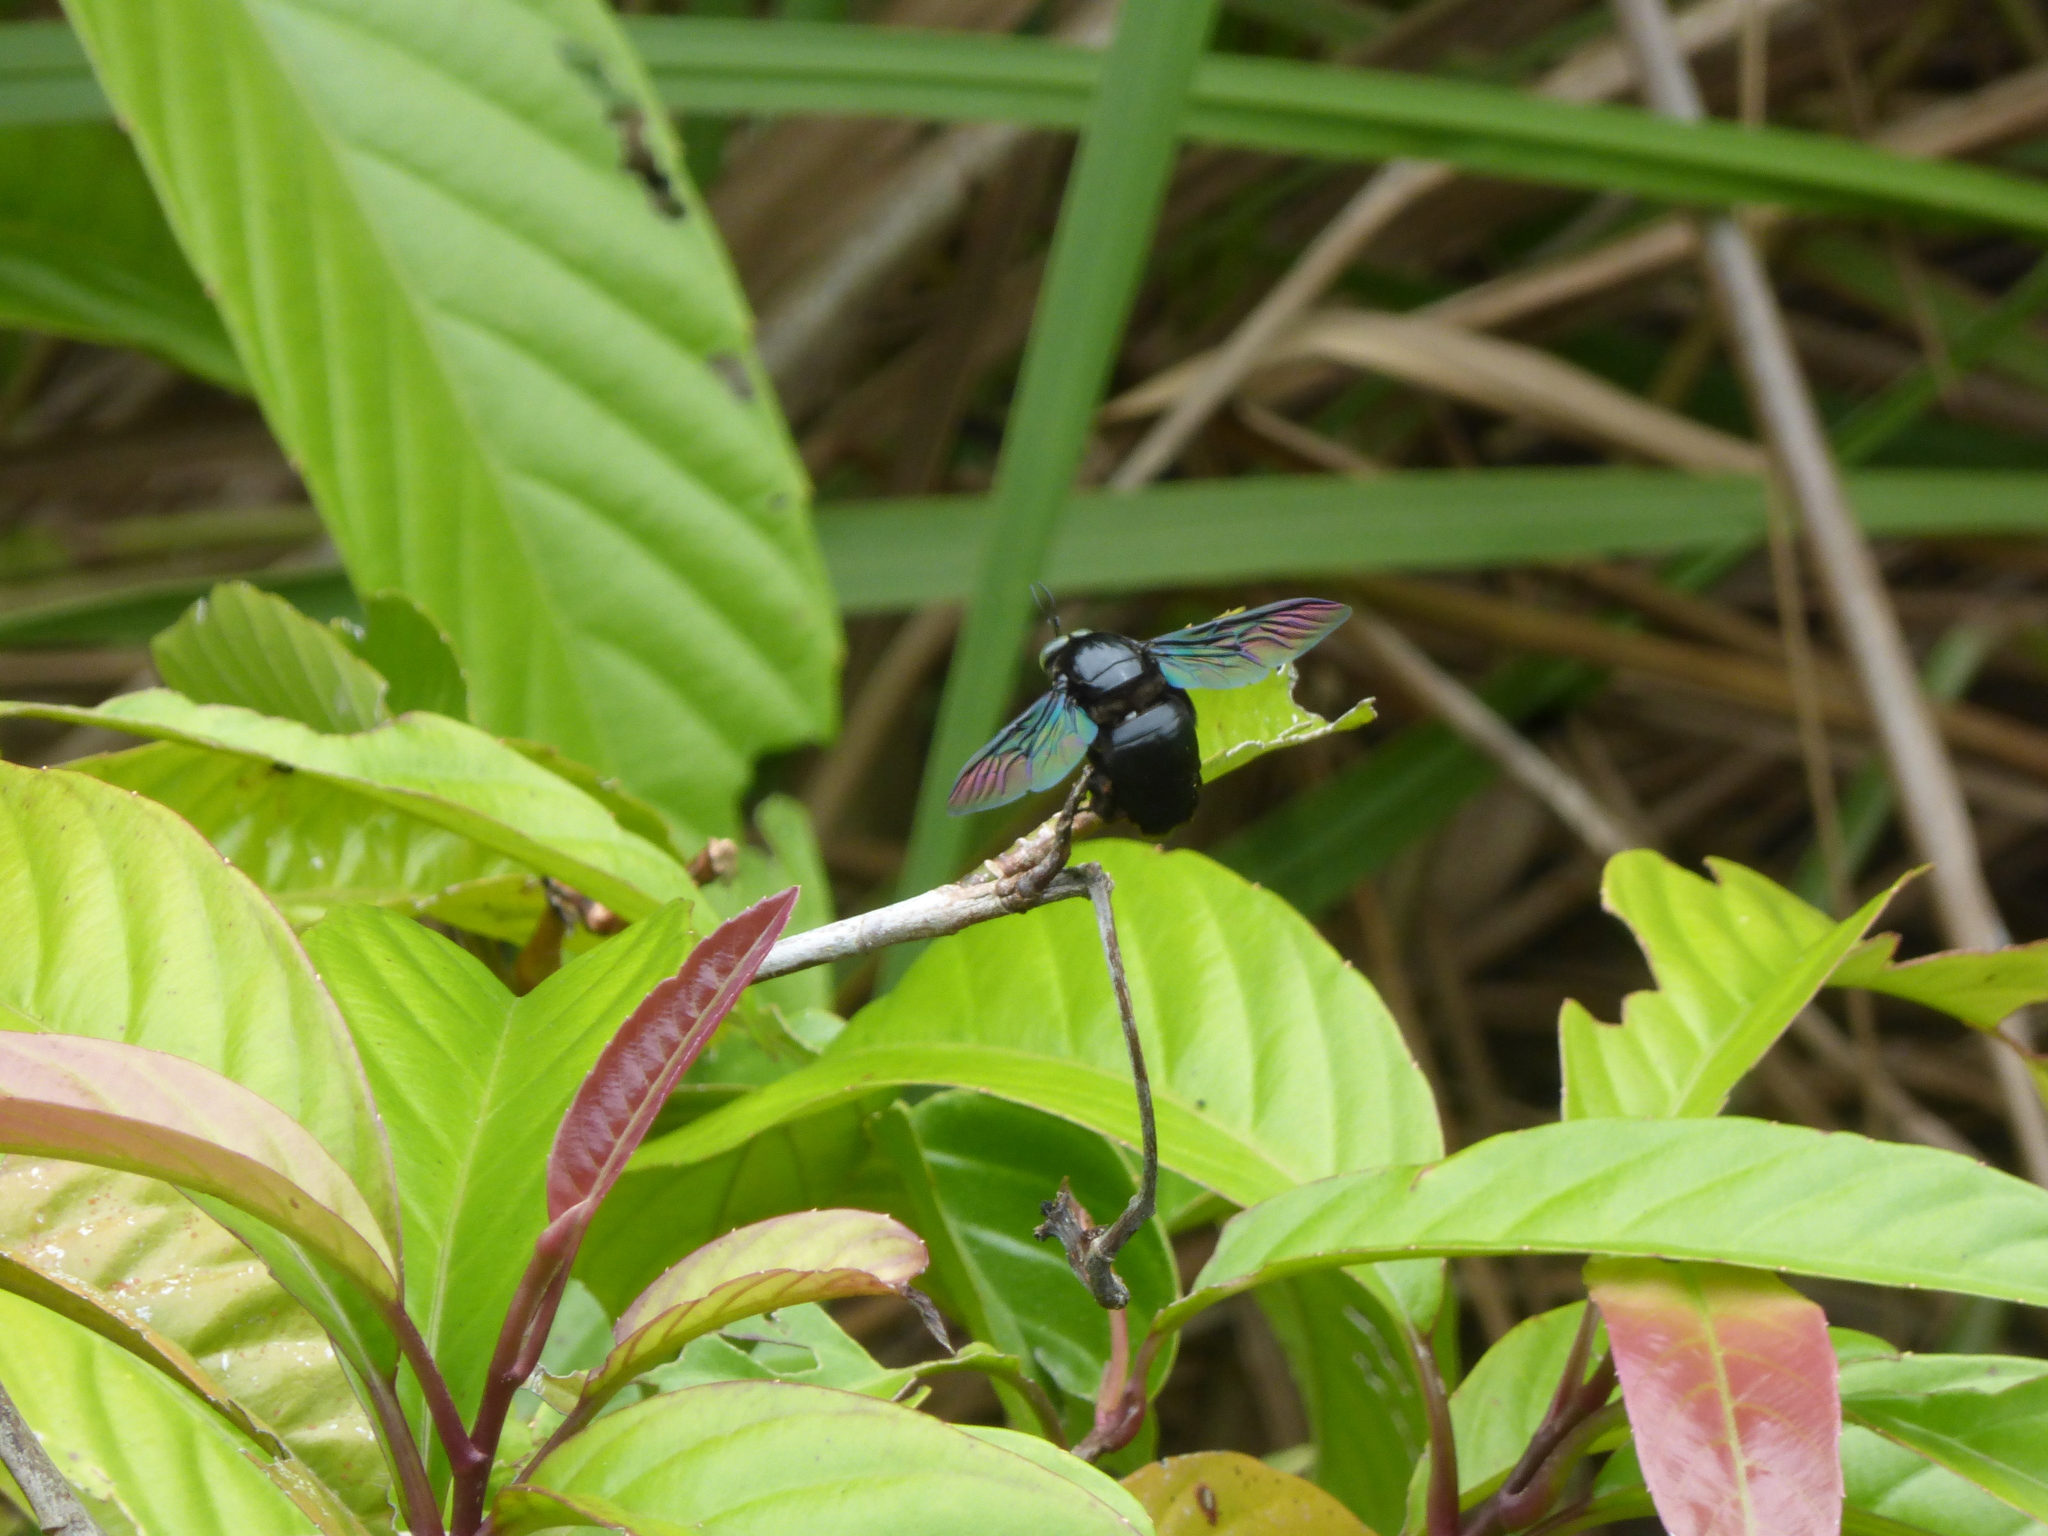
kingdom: Animalia
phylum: Arthropoda
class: Insecta
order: Hymenoptera
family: Apidae
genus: Xylocopa
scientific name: Xylocopa latipes
